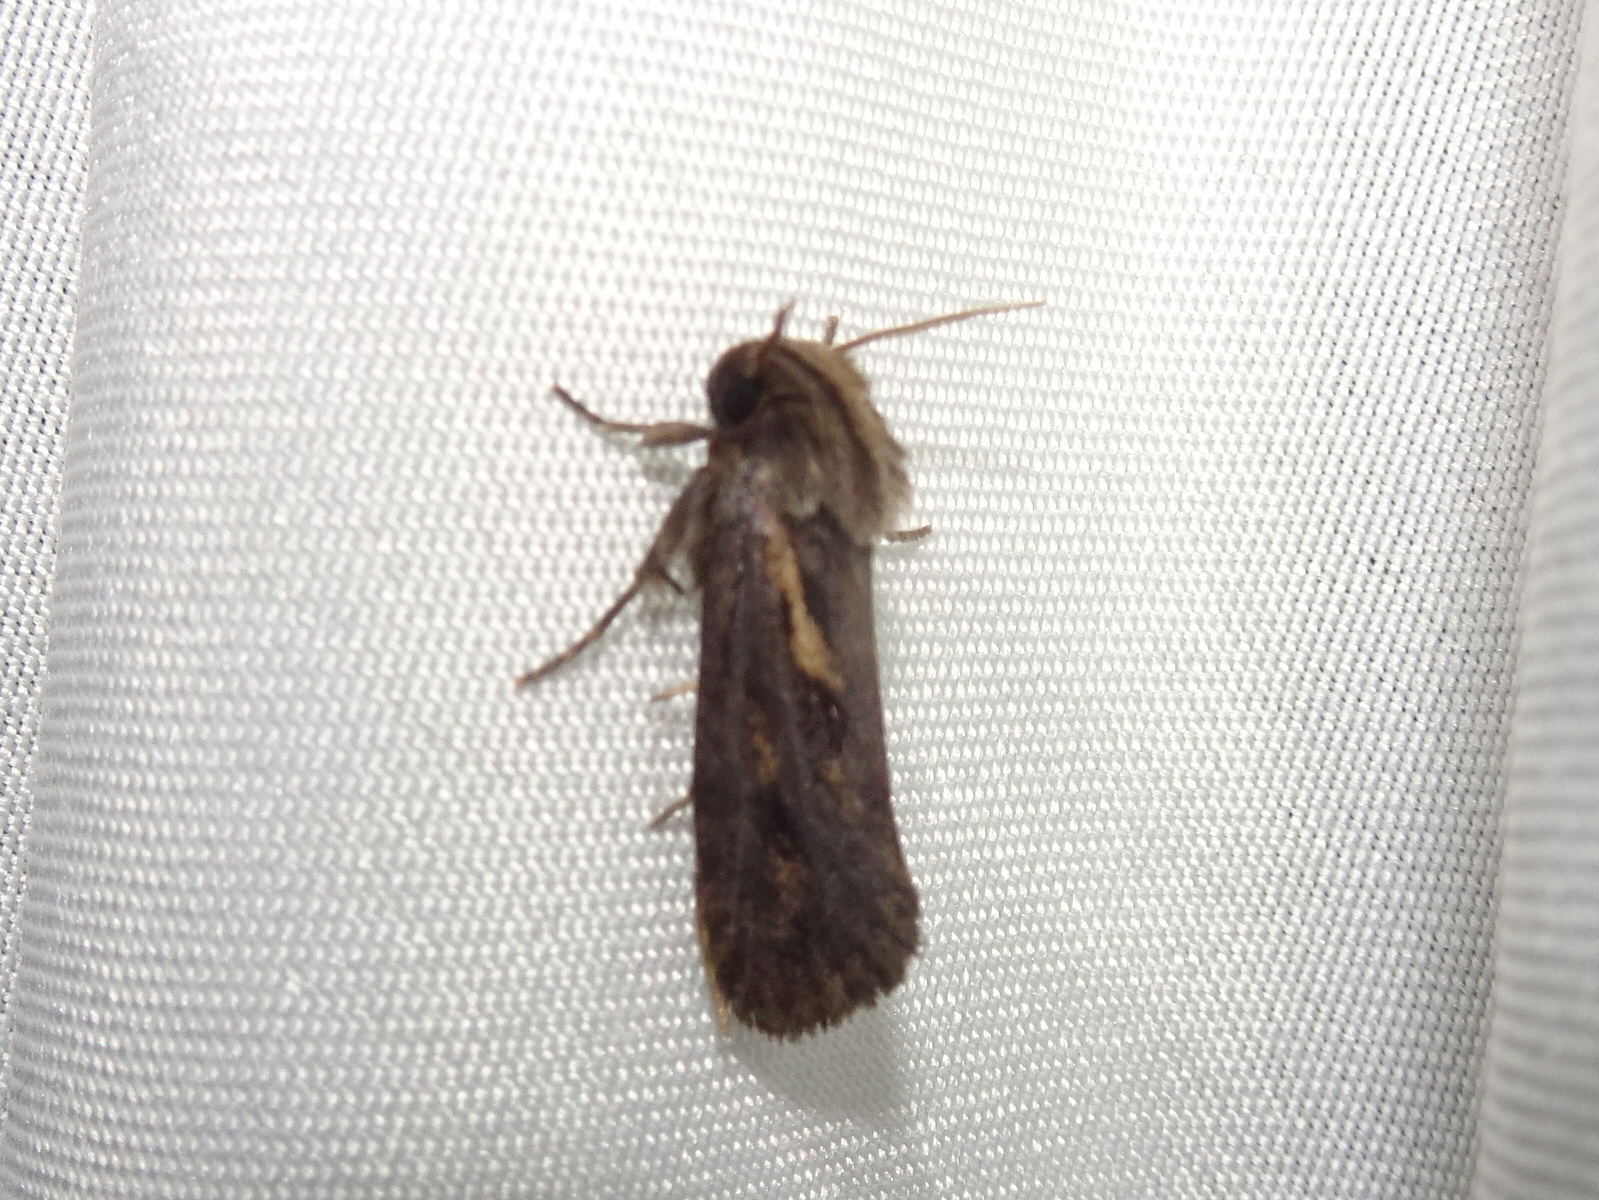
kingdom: Animalia
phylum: Arthropoda
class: Insecta
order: Lepidoptera
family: Tineidae
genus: Acrolophus
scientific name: Acrolophus popeanella
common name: Clemens' grass tubeworm moth
